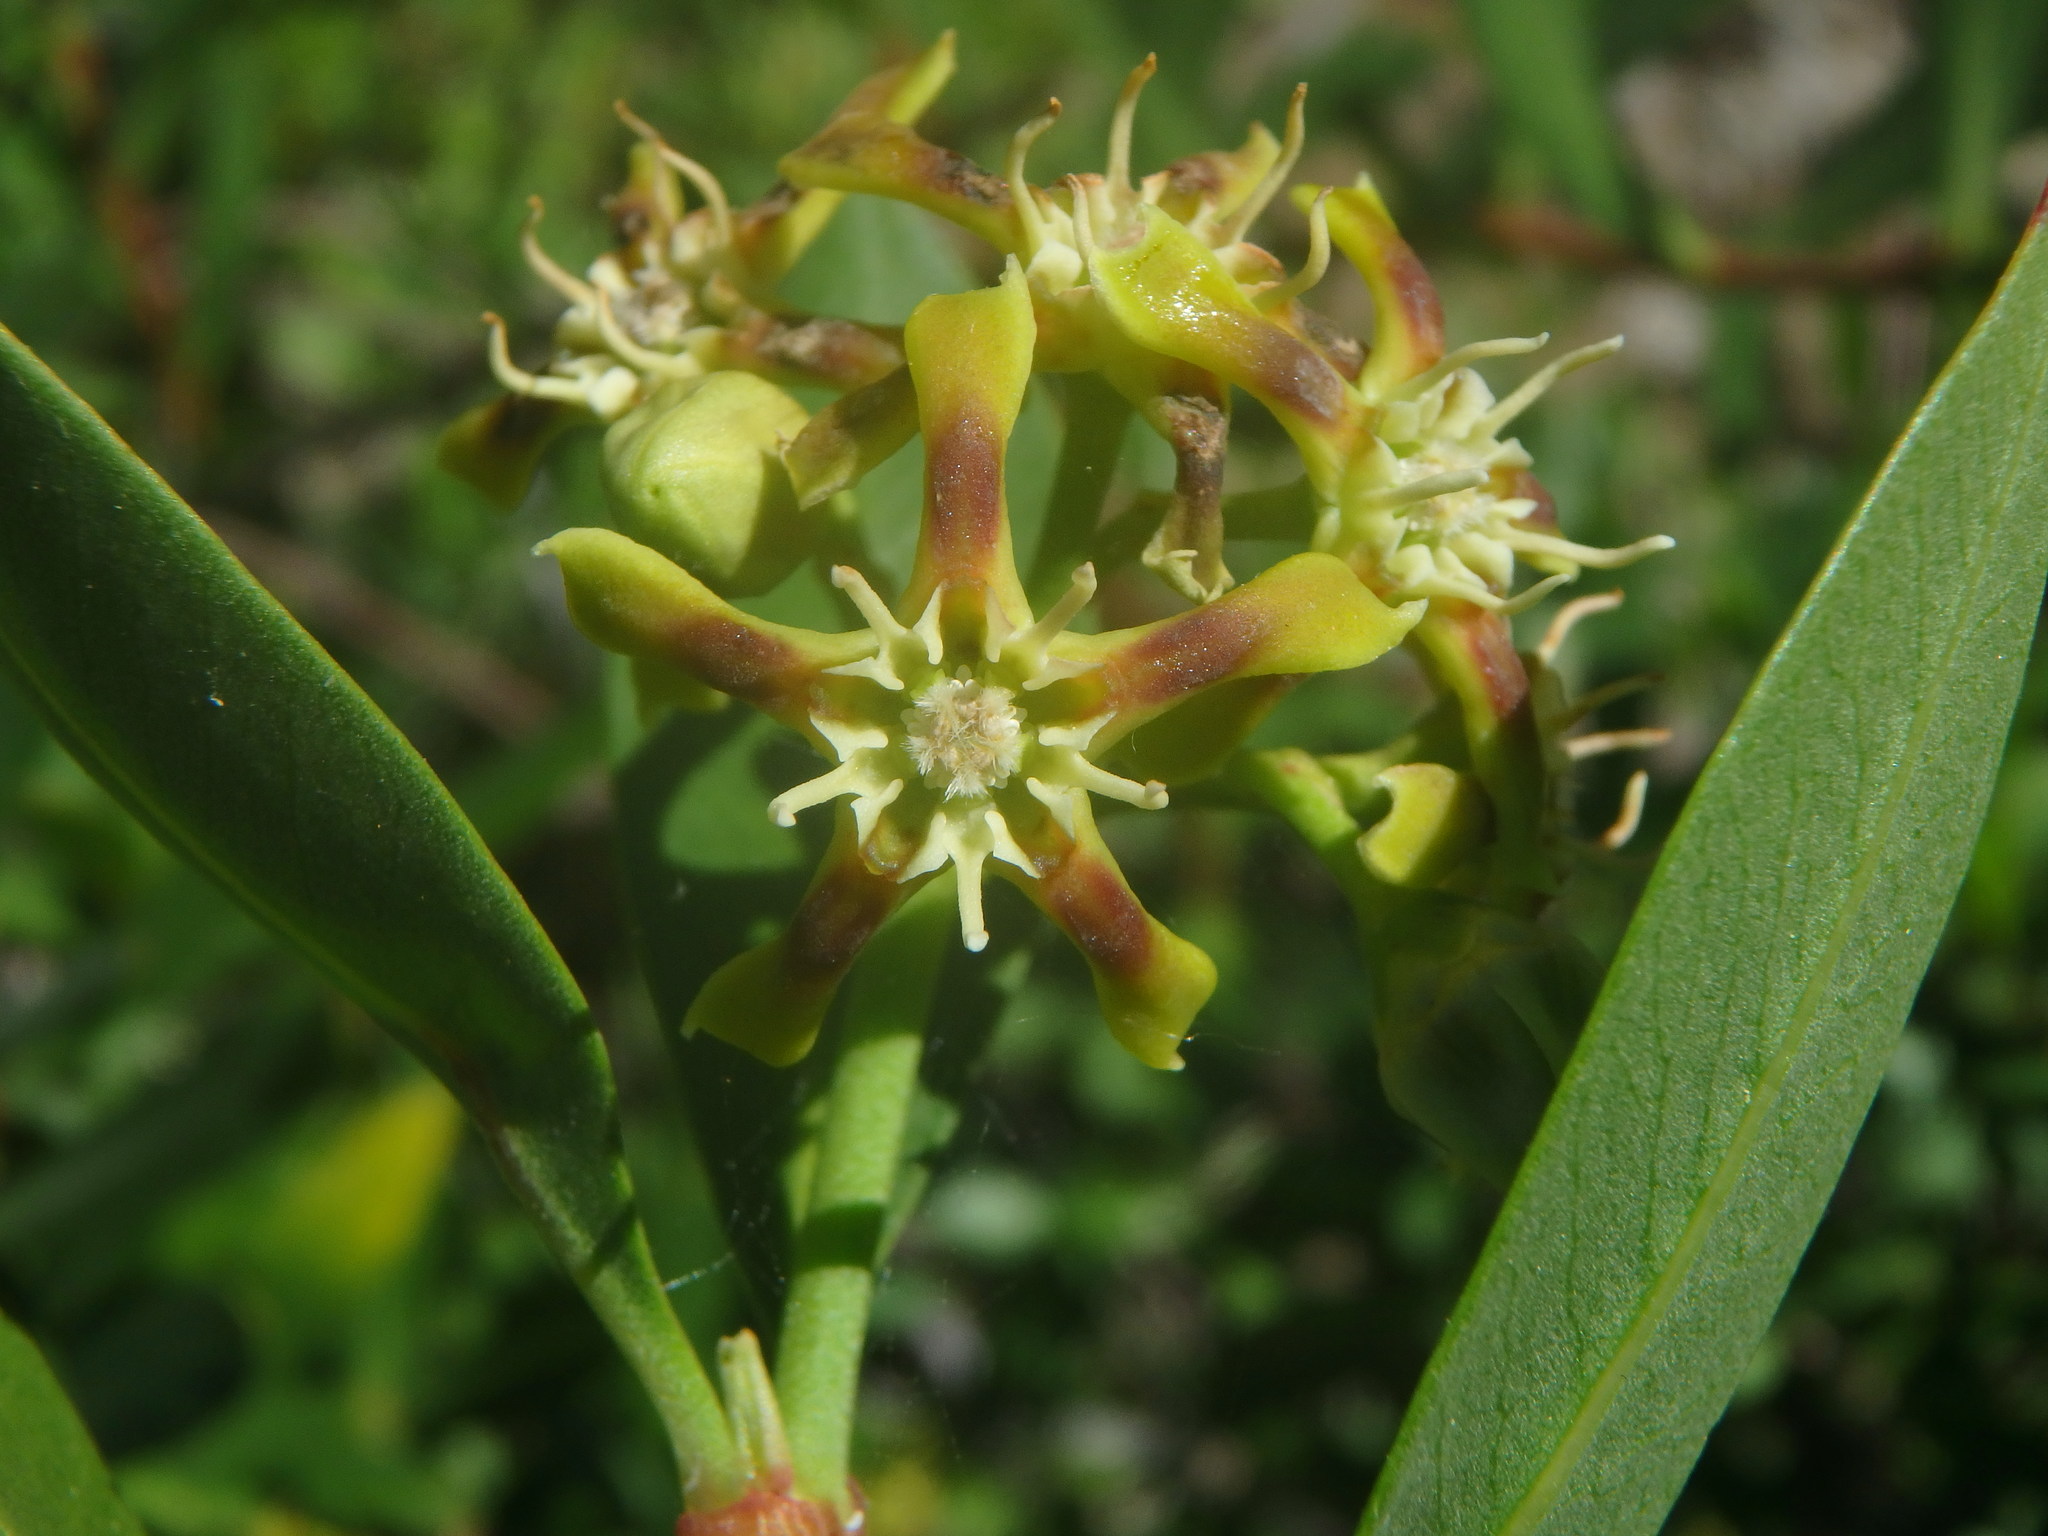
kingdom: Plantae
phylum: Tracheophyta
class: Magnoliopsida
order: Gentianales
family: Apocynaceae
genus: Periploca
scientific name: Periploca laevigata
